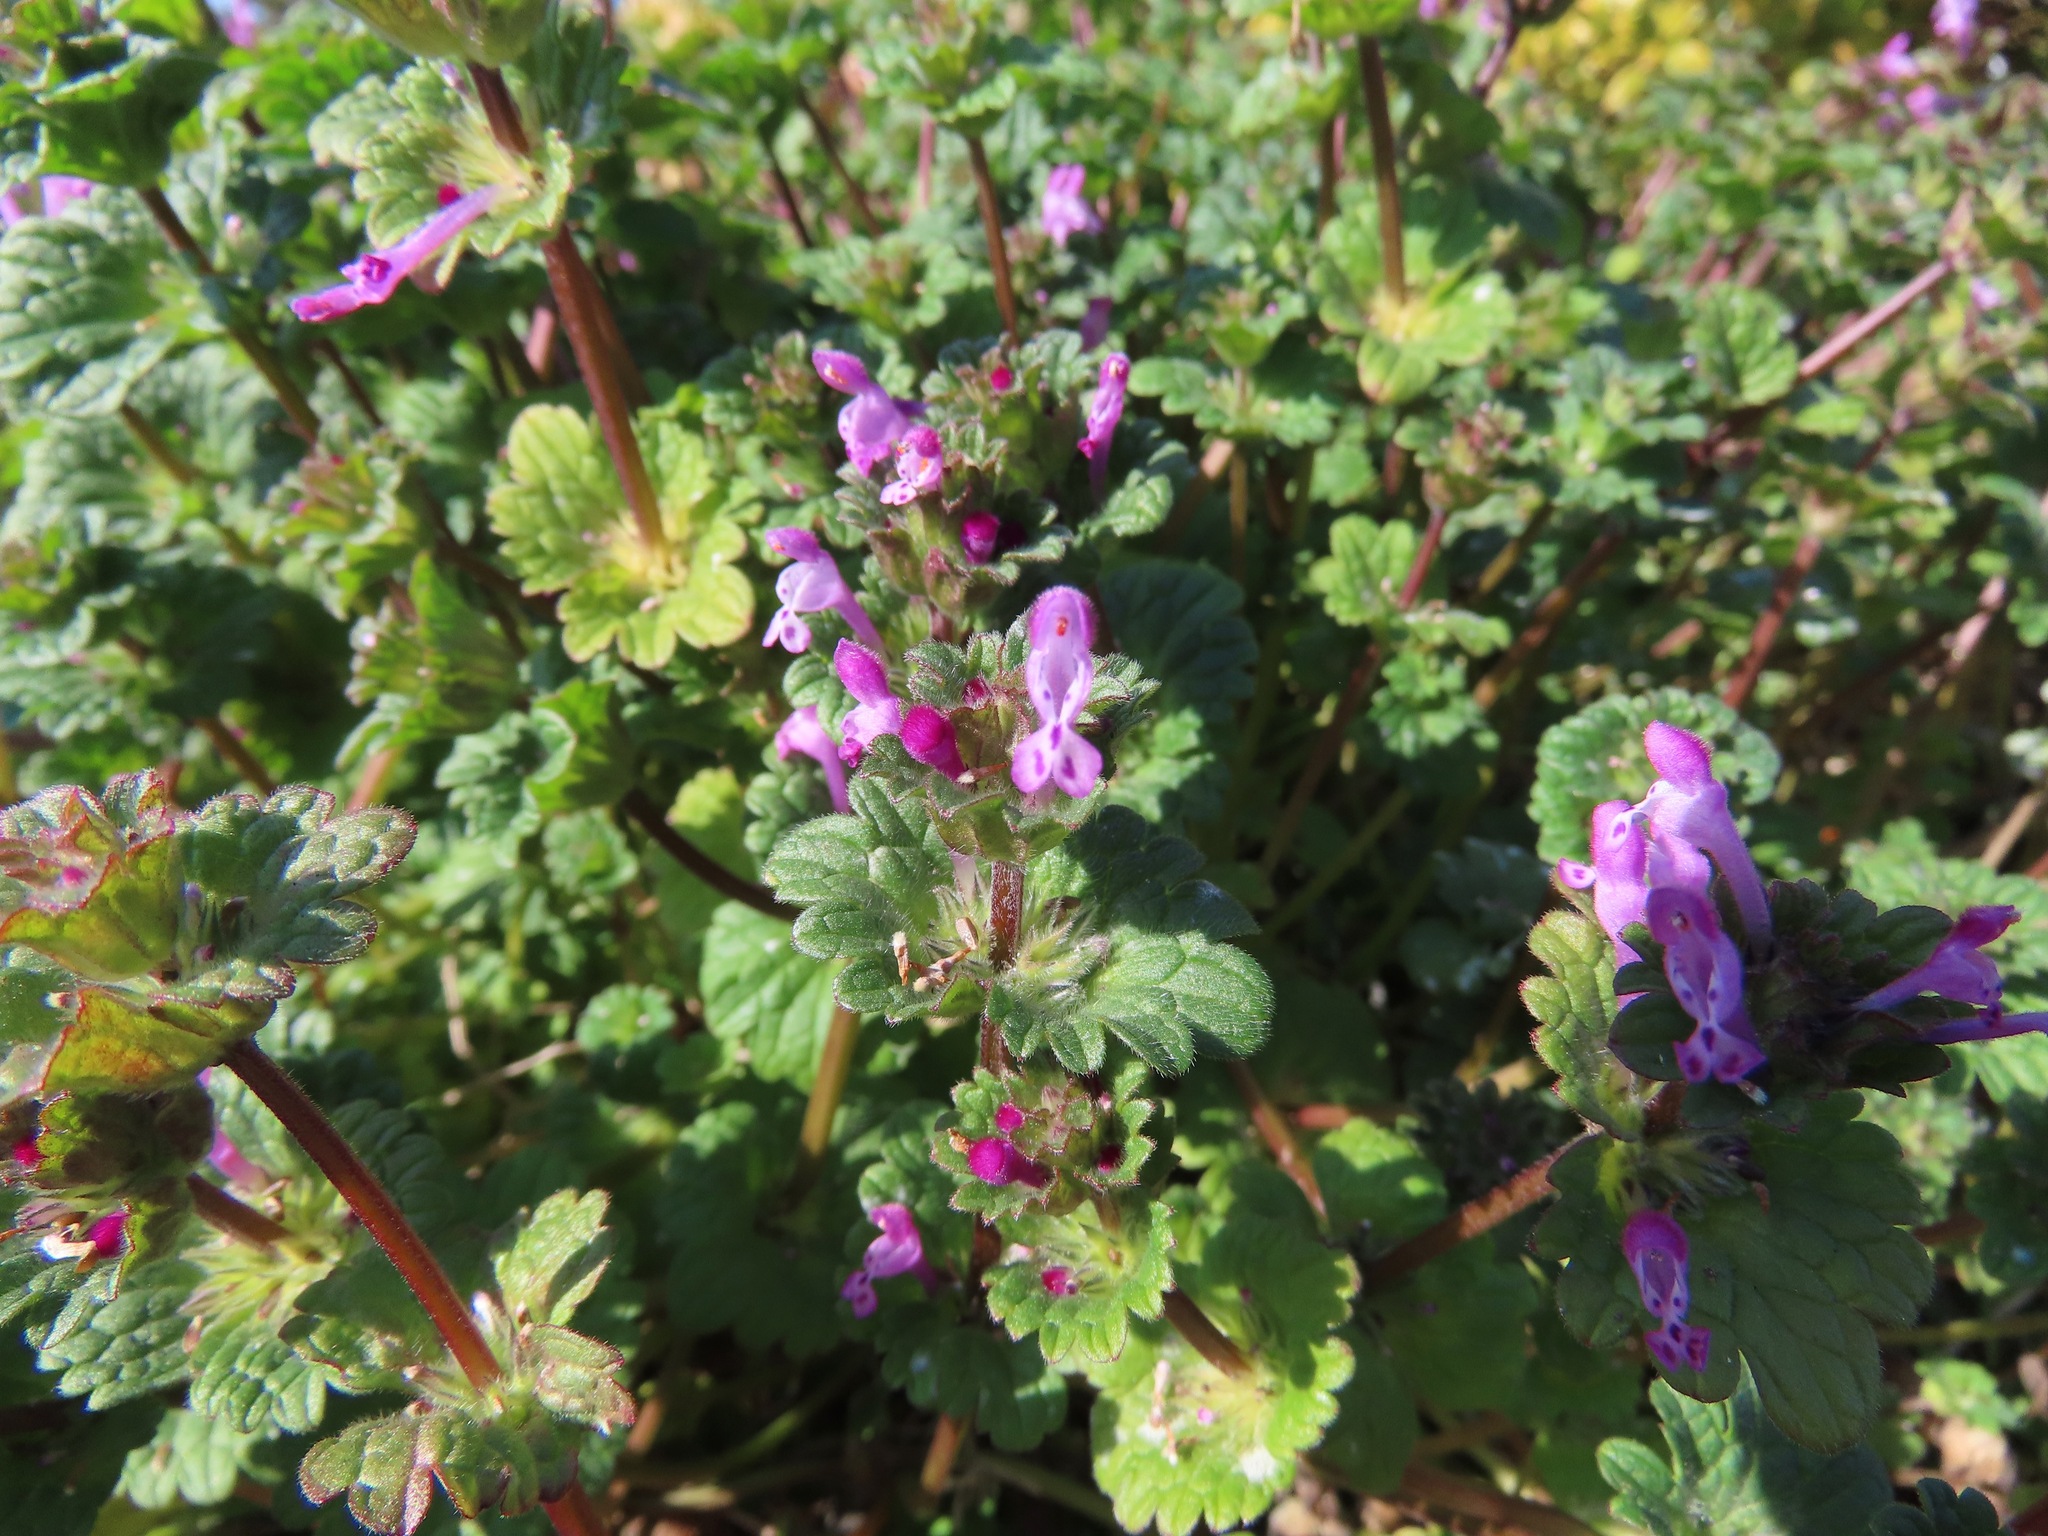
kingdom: Plantae
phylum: Tracheophyta
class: Magnoliopsida
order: Lamiales
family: Lamiaceae
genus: Lamium
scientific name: Lamium amplexicaule
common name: Henbit dead-nettle
